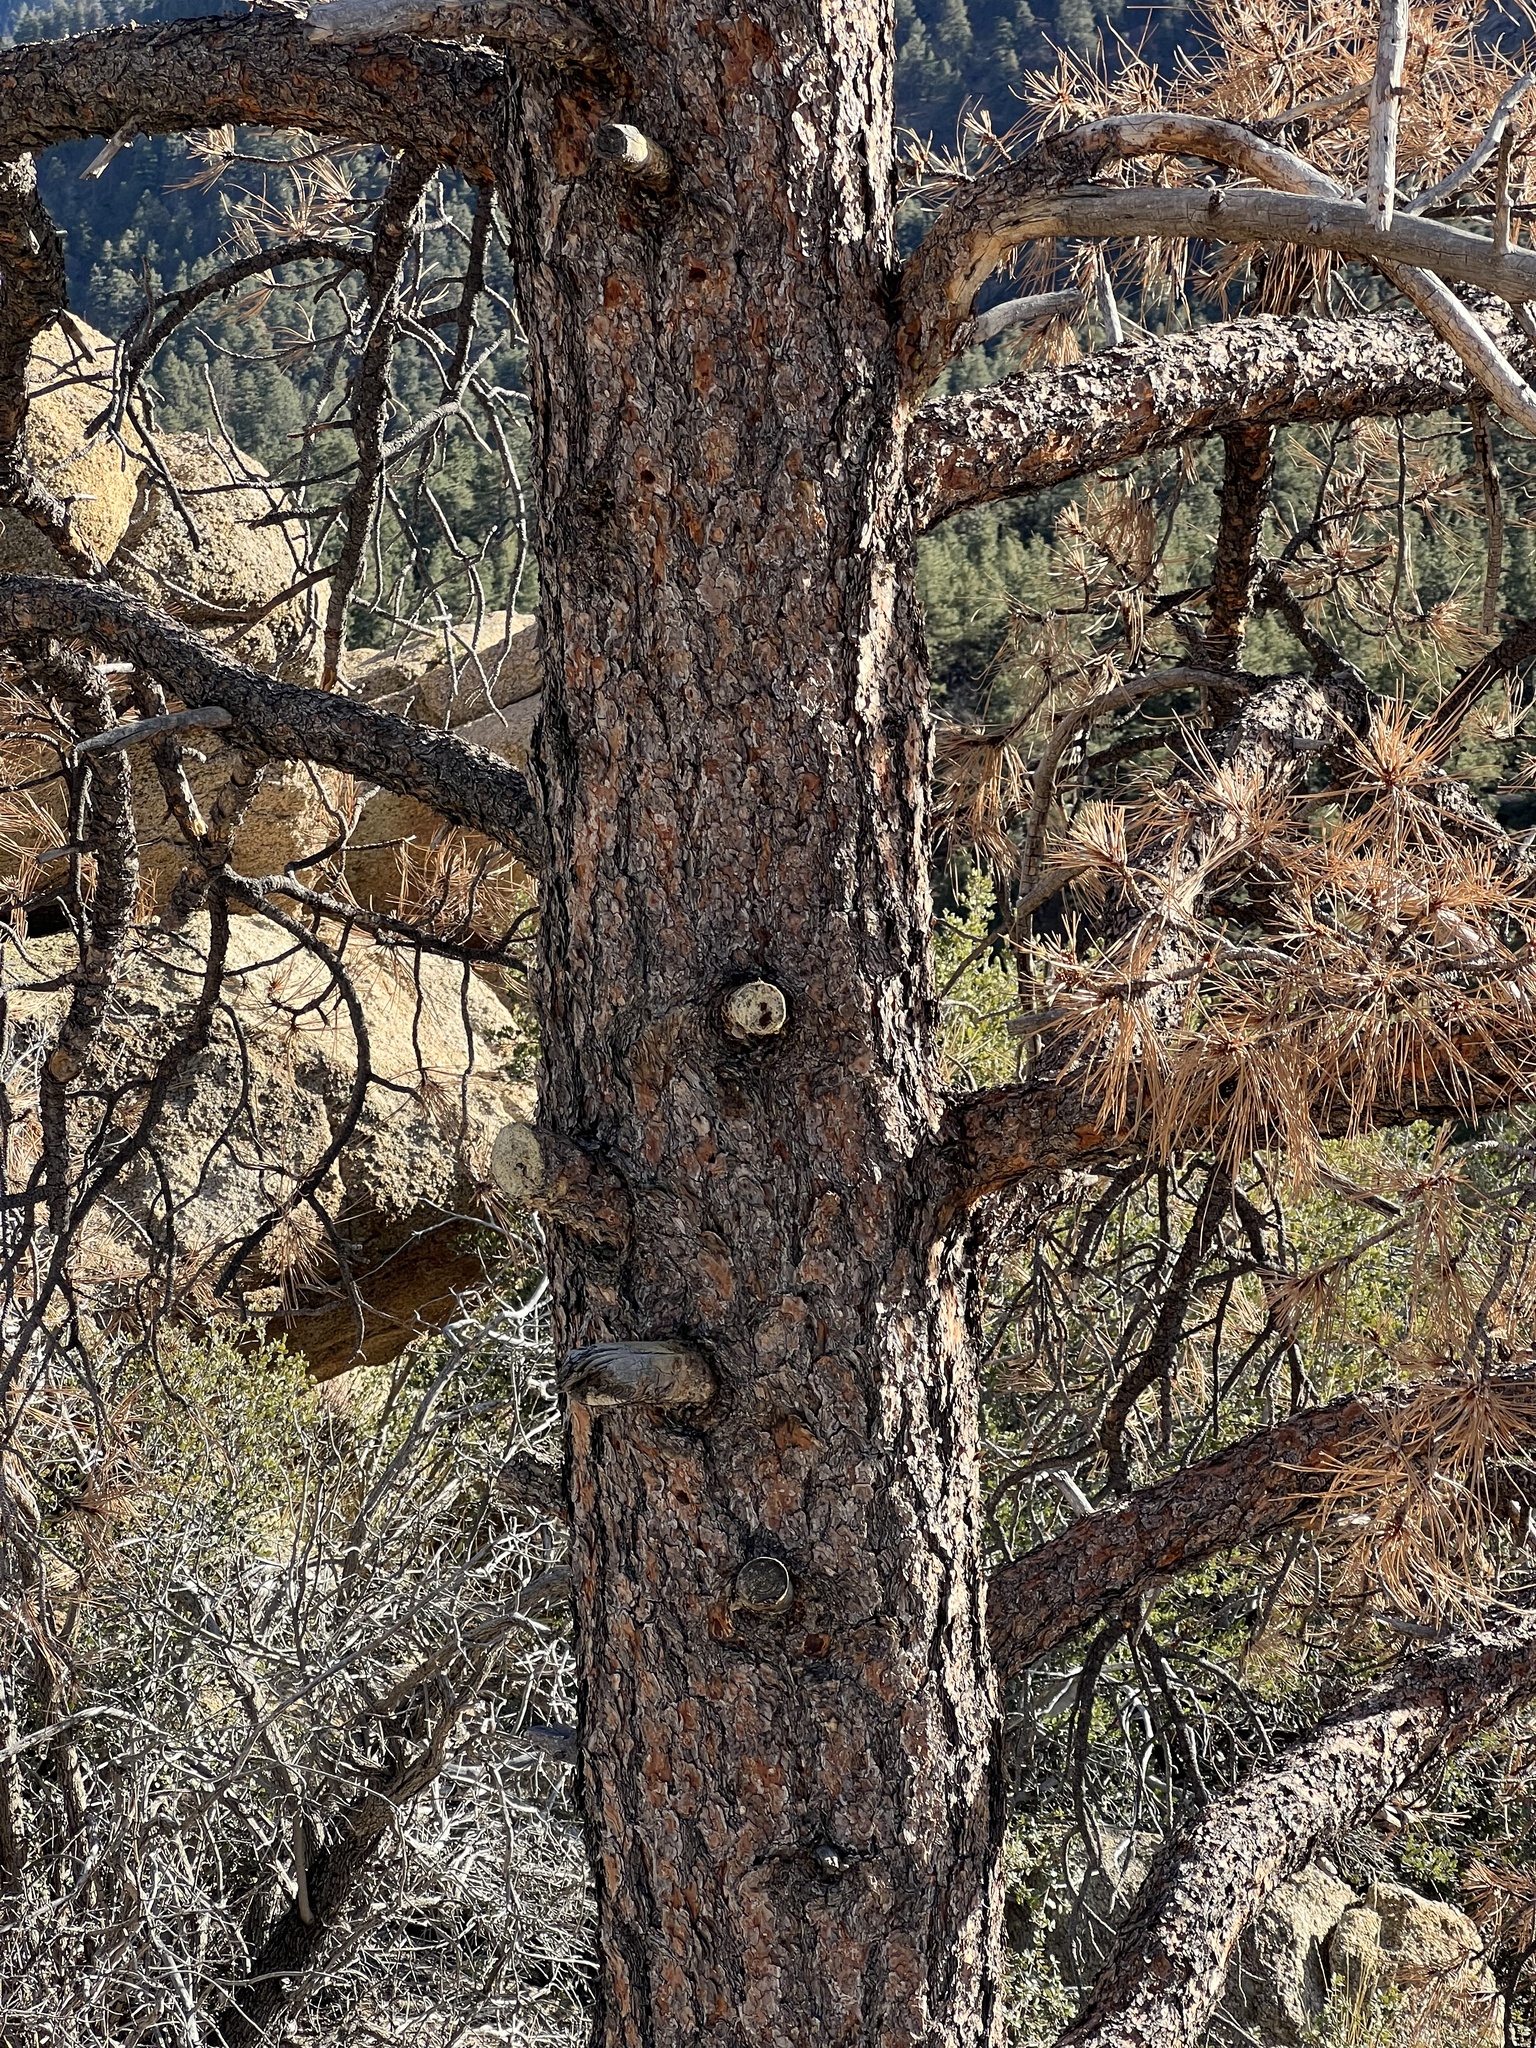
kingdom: Plantae
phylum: Tracheophyta
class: Pinopsida
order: Pinales
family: Pinaceae
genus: Pinus
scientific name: Pinus ponderosa
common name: Western yellow-pine
